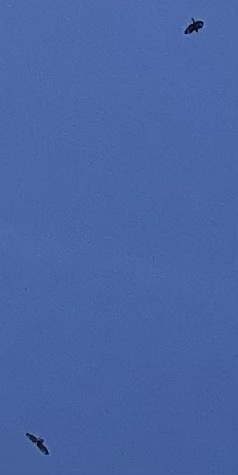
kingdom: Animalia
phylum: Chordata
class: Aves
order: Accipitriformes
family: Accipitridae
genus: Buteo
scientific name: Buteo buteo
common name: Common buzzard
